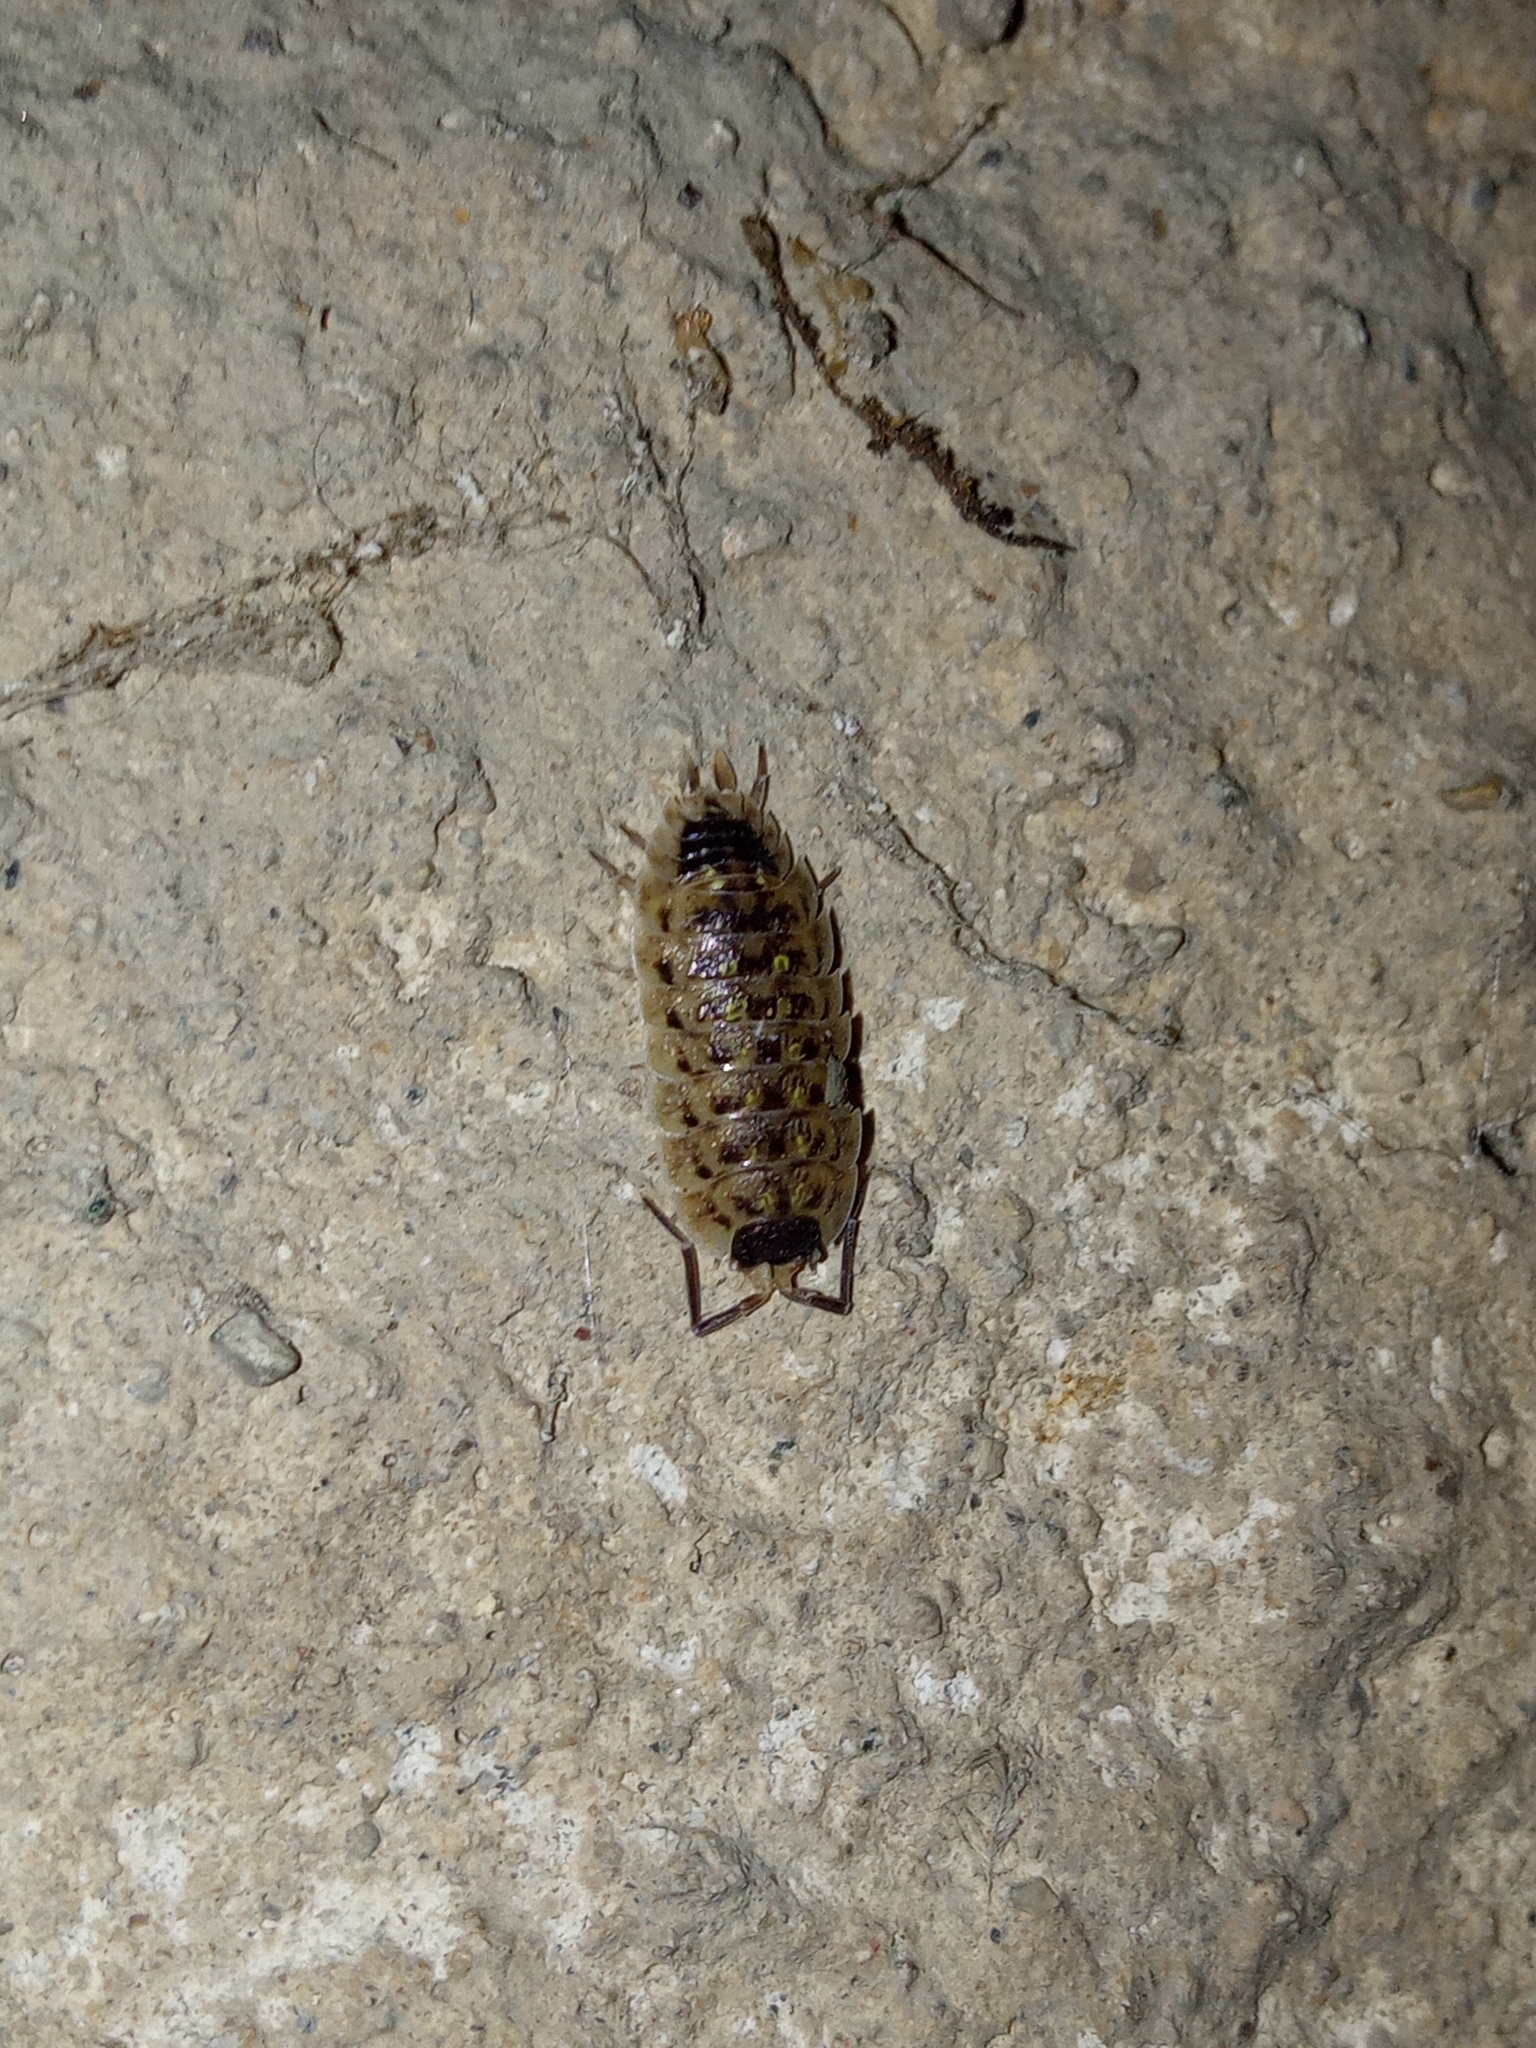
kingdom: Animalia
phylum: Arthropoda
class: Malacostraca
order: Isopoda
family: Porcellionidae
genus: Porcellio
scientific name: Porcellio spinicornis
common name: Painted woodlouse
